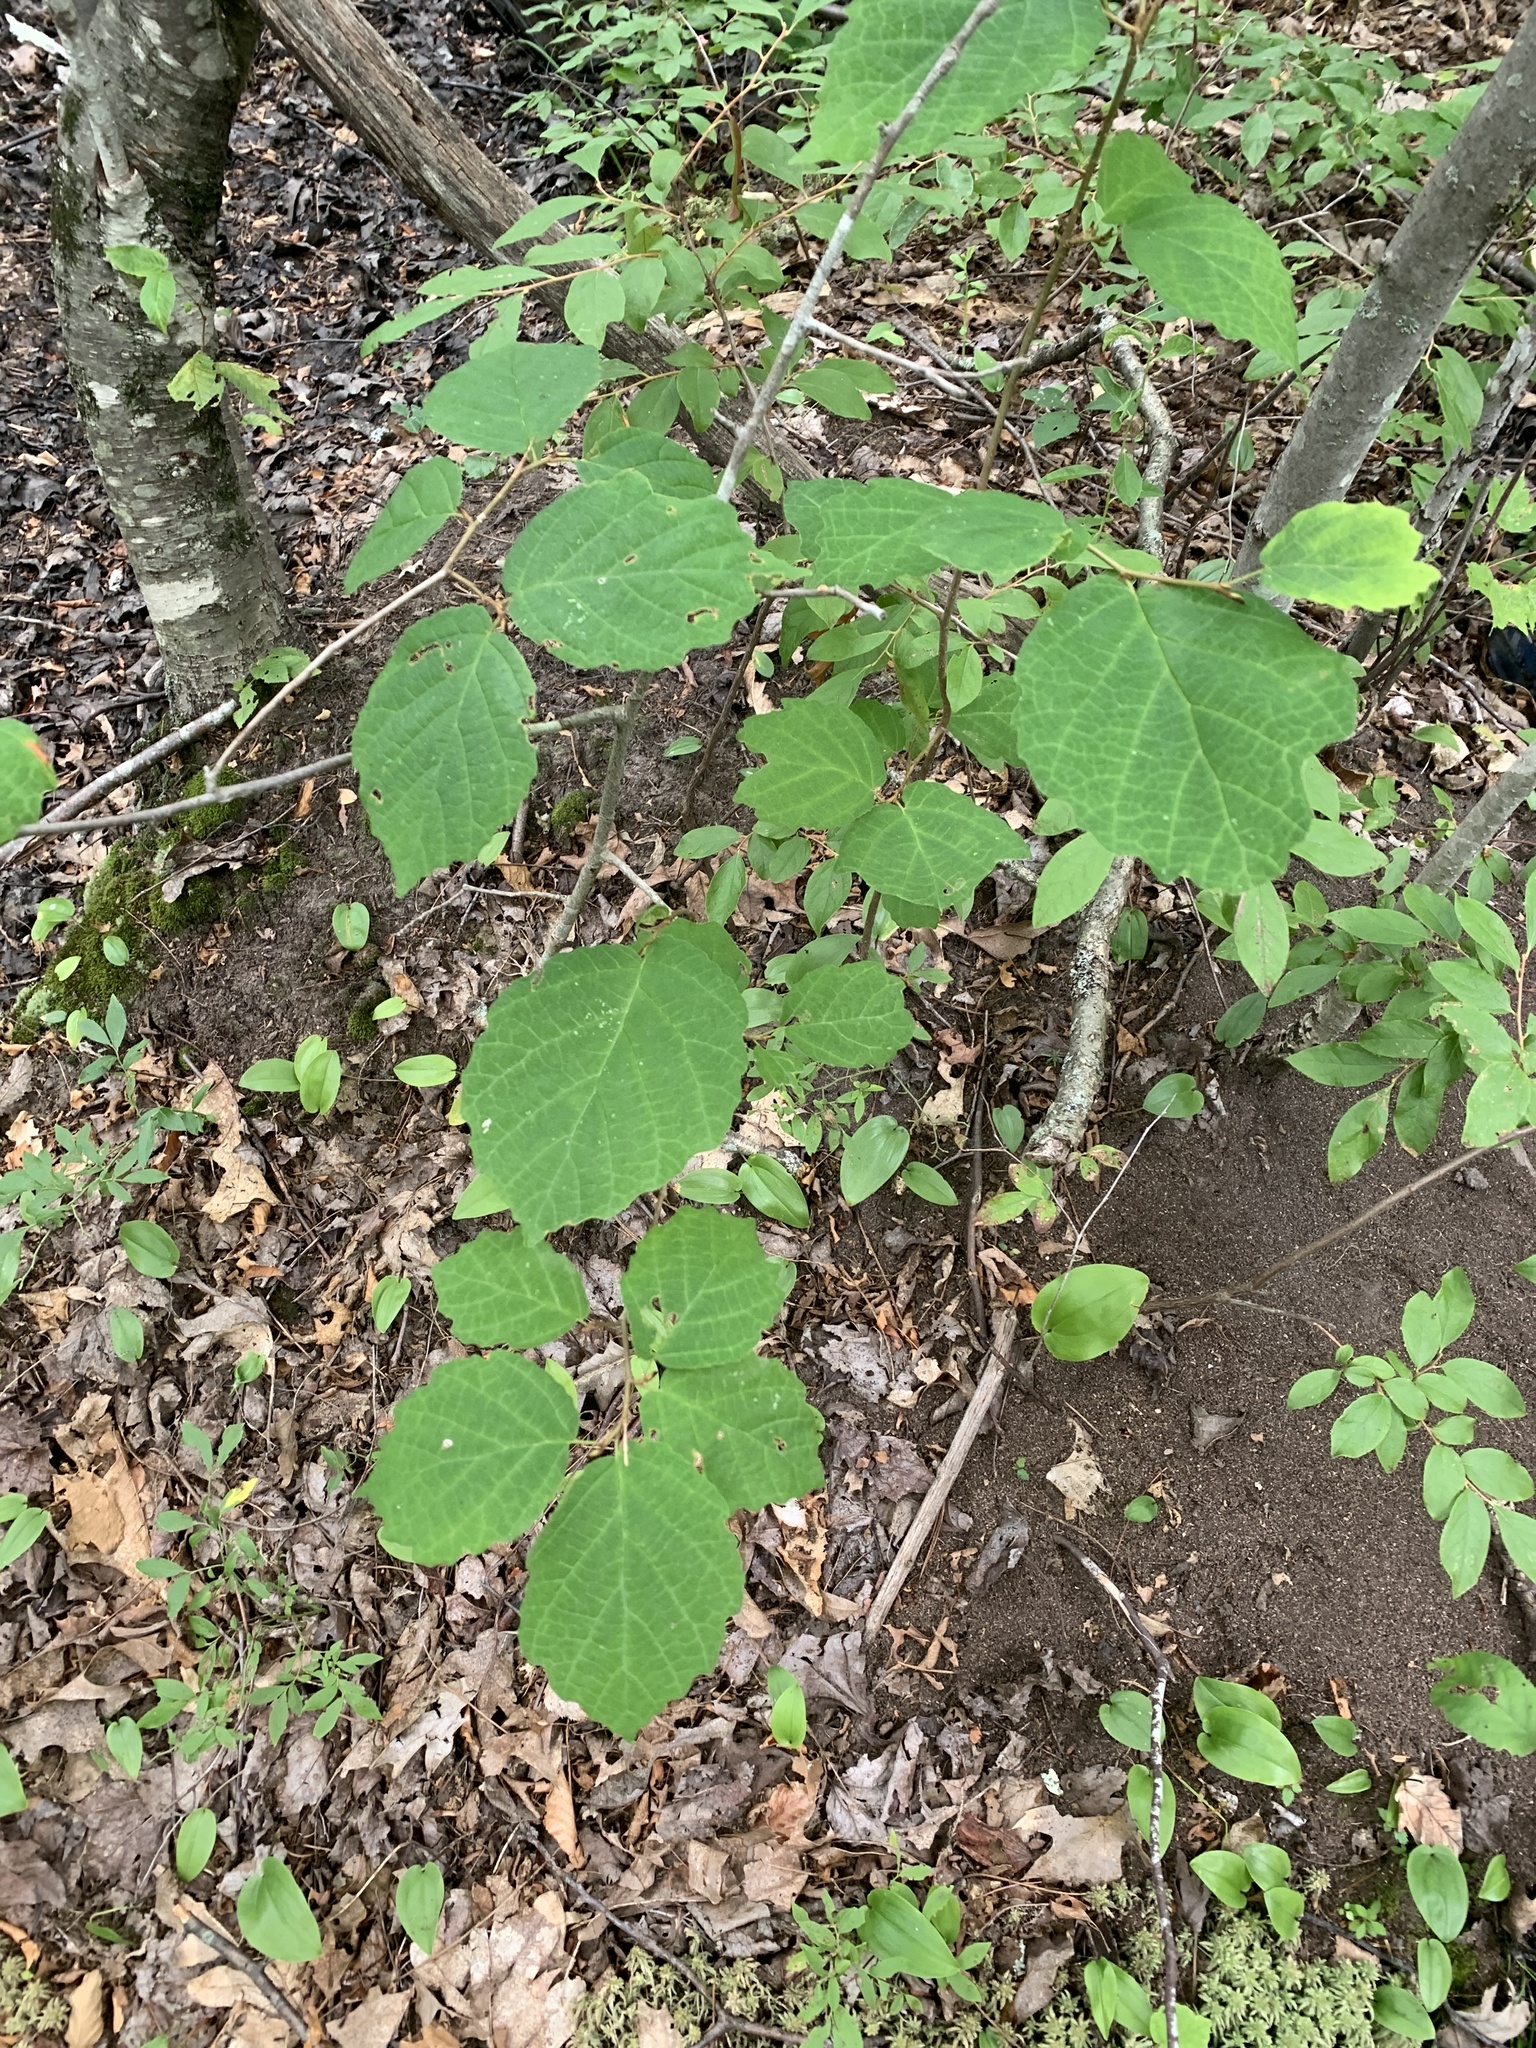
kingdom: Plantae
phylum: Tracheophyta
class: Magnoliopsida
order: Saxifragales
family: Hamamelidaceae
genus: Hamamelis
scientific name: Hamamelis virginiana
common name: Witch-hazel
